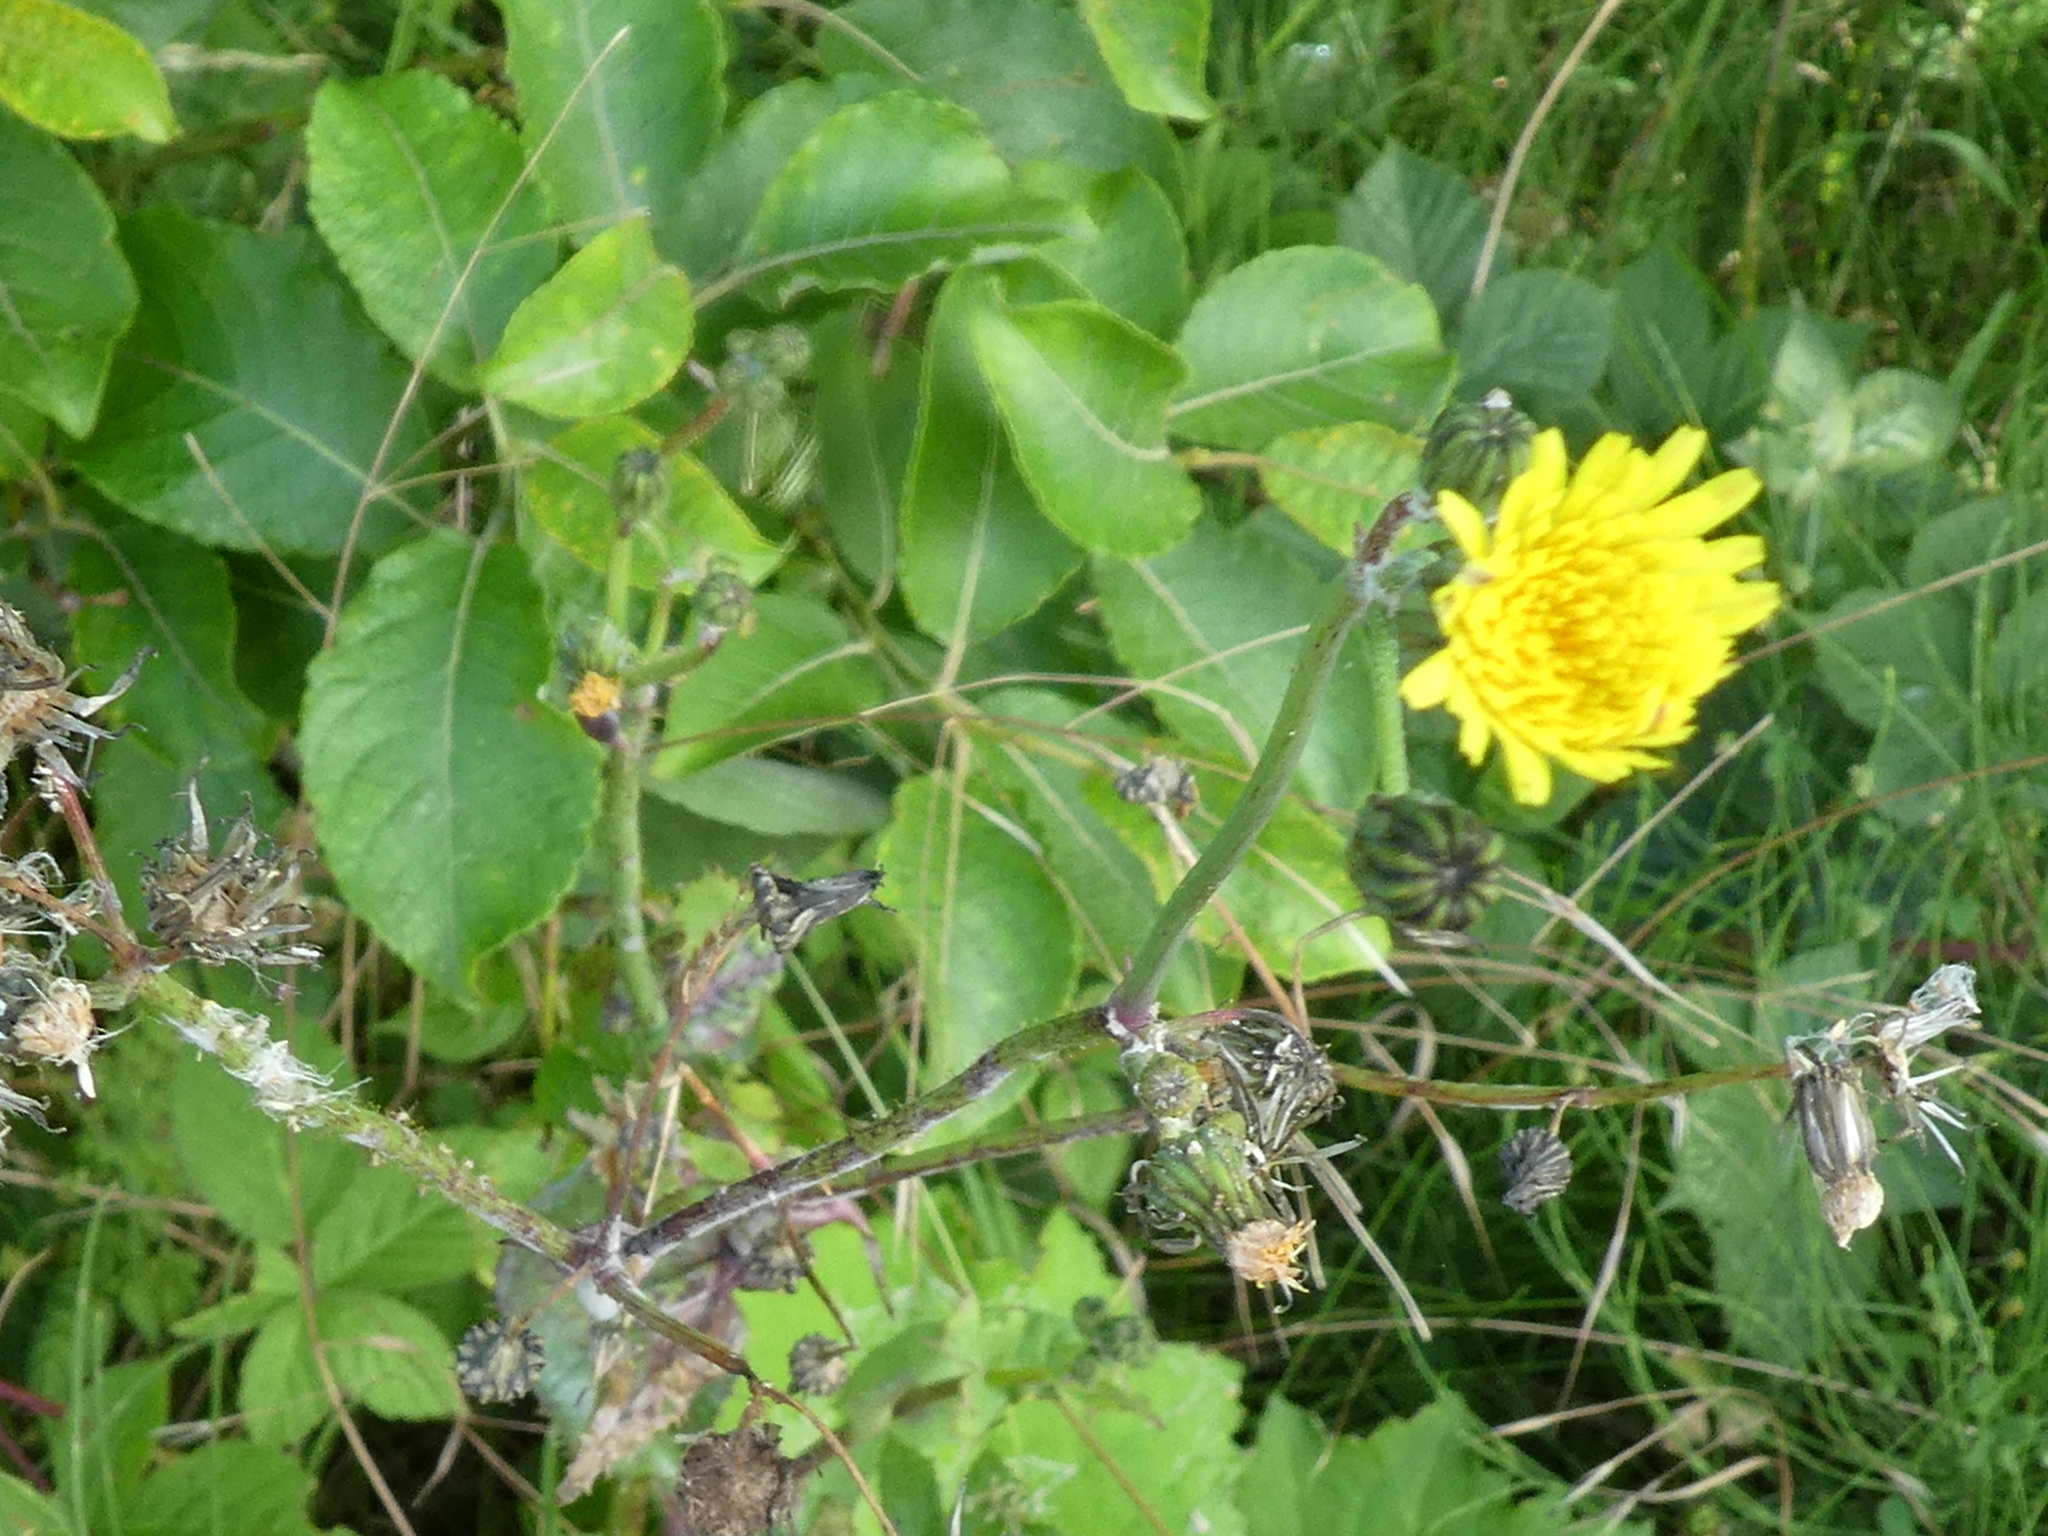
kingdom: Plantae
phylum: Tracheophyta
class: Magnoliopsida
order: Asterales
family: Asteraceae
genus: Sonchus
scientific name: Sonchus
